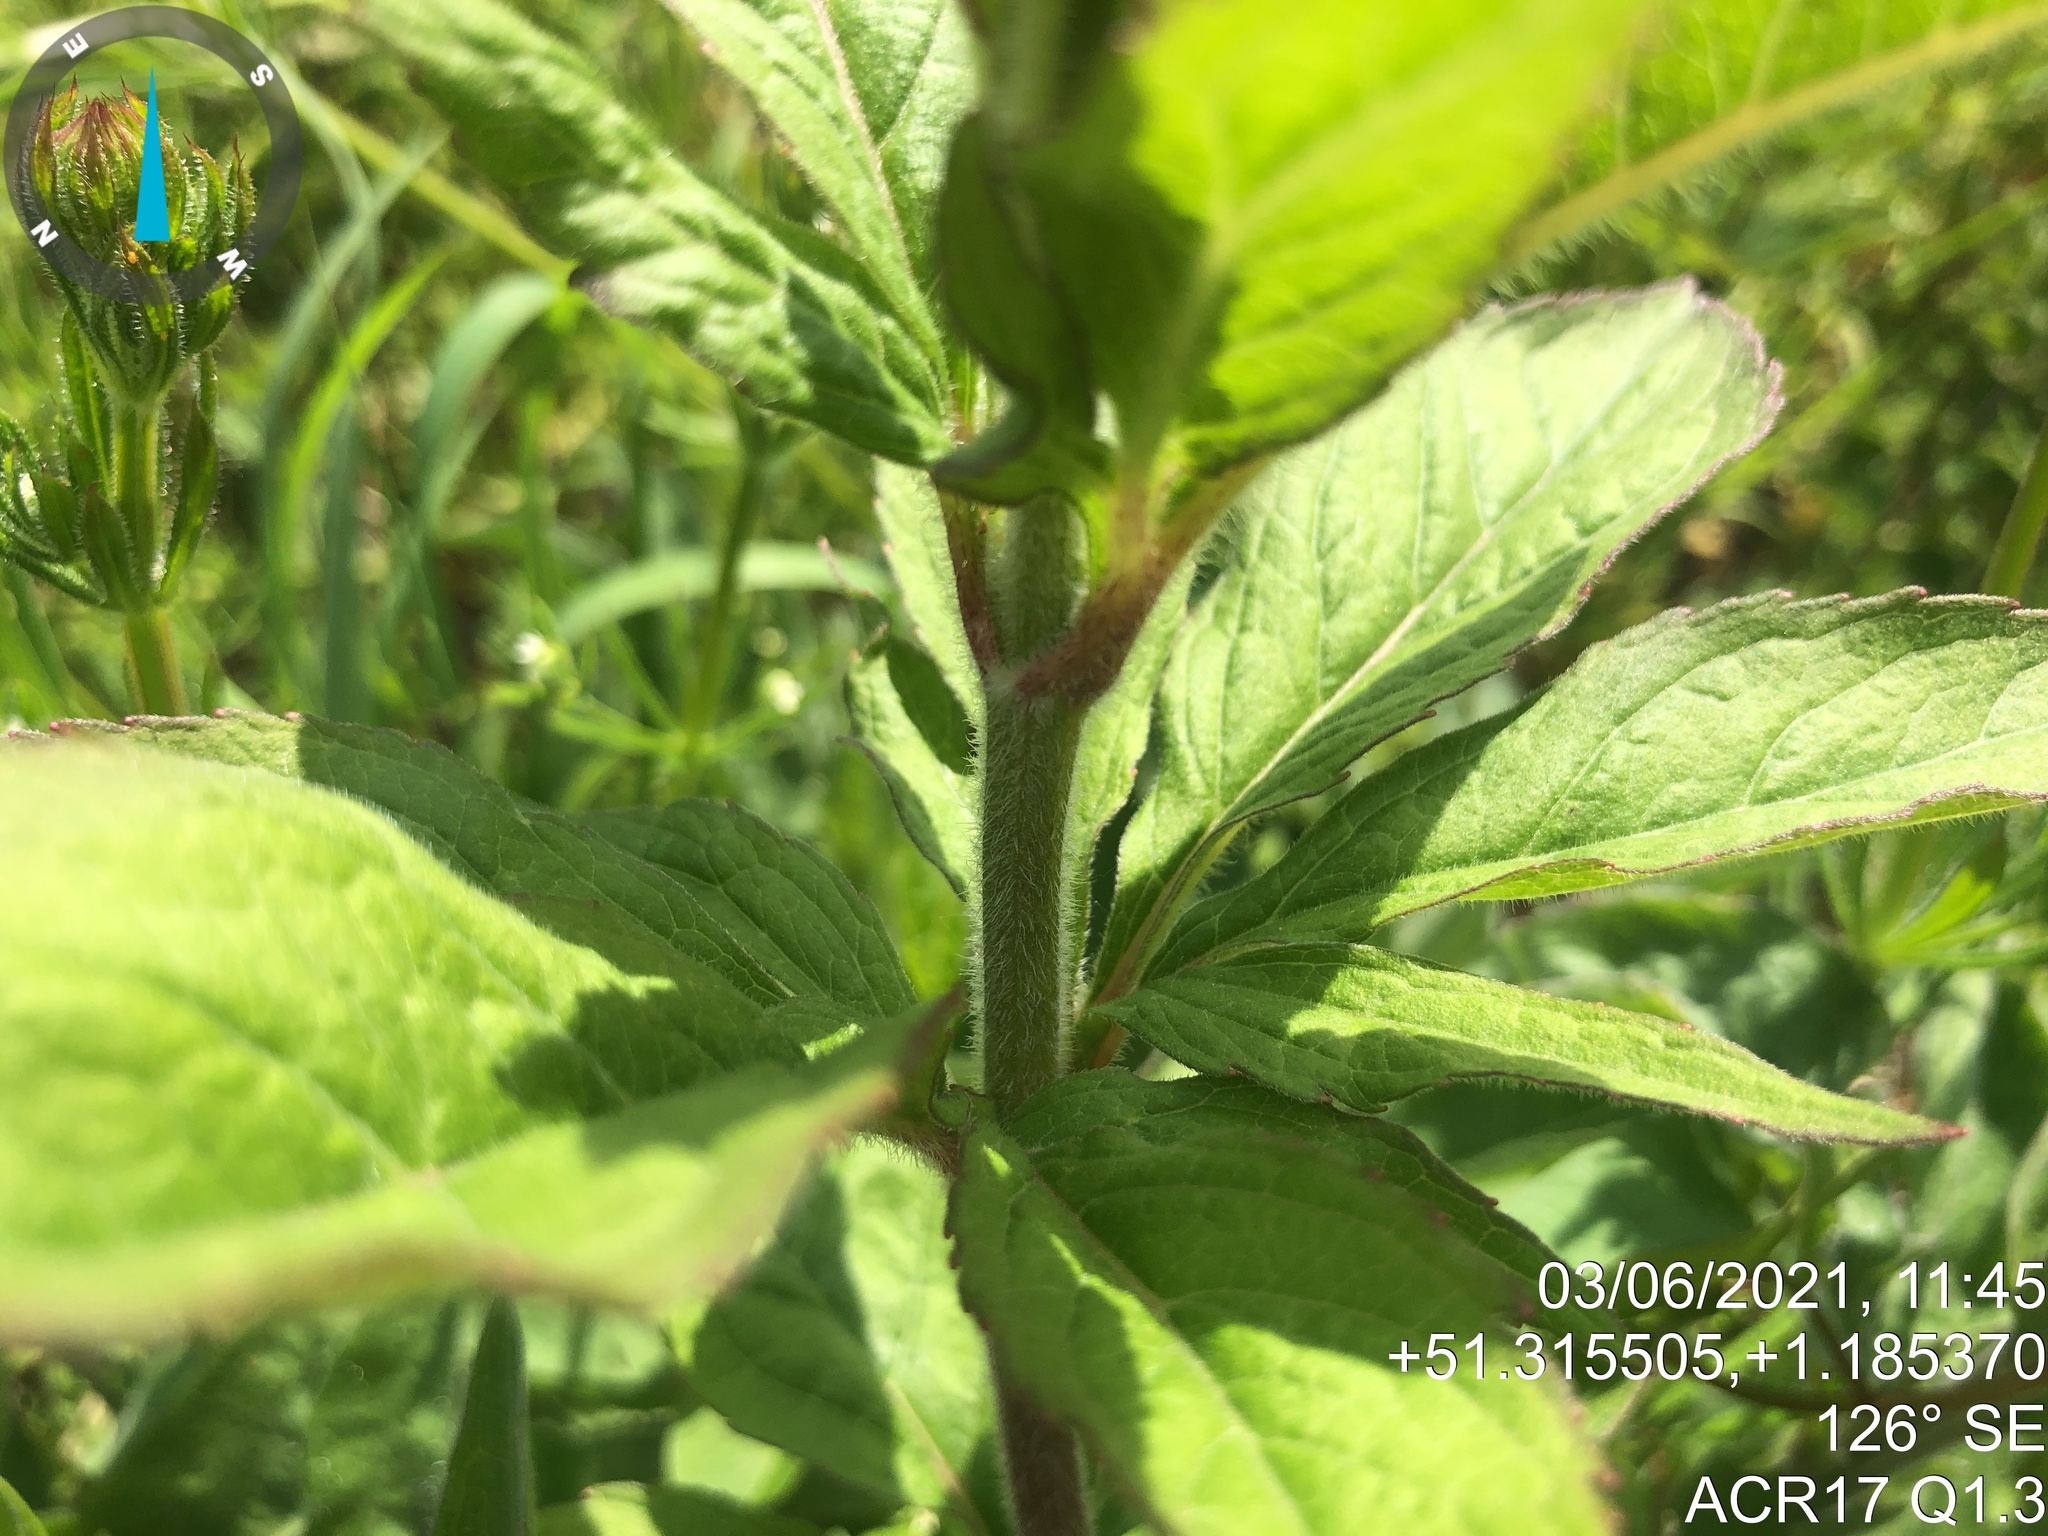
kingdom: Plantae
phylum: Tracheophyta
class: Magnoliopsida
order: Asterales
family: Asteraceae
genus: Eupatorium
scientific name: Eupatorium cannabinum
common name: Hemp-agrimony
